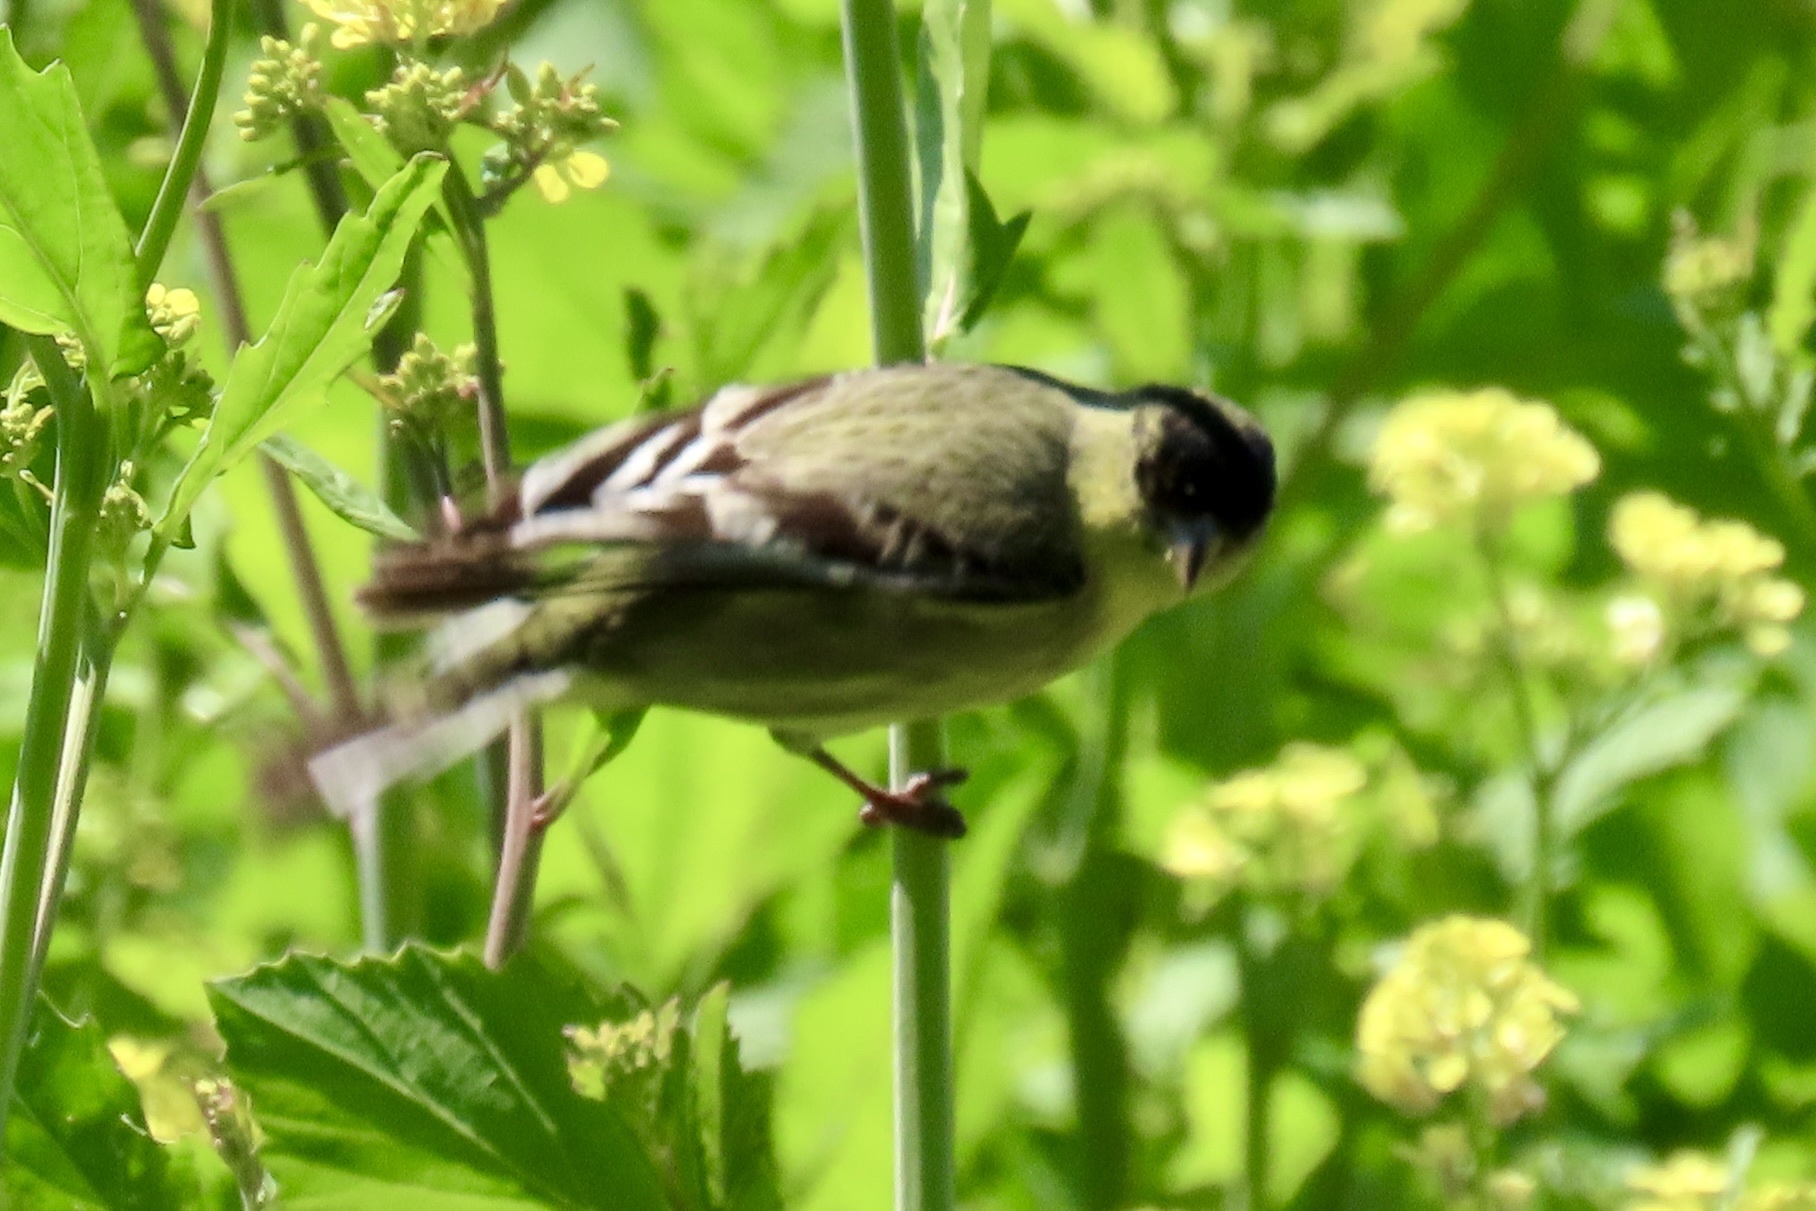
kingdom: Animalia
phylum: Chordata
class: Aves
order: Passeriformes
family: Fringillidae
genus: Spinus
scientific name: Spinus psaltria
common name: Lesser goldfinch
